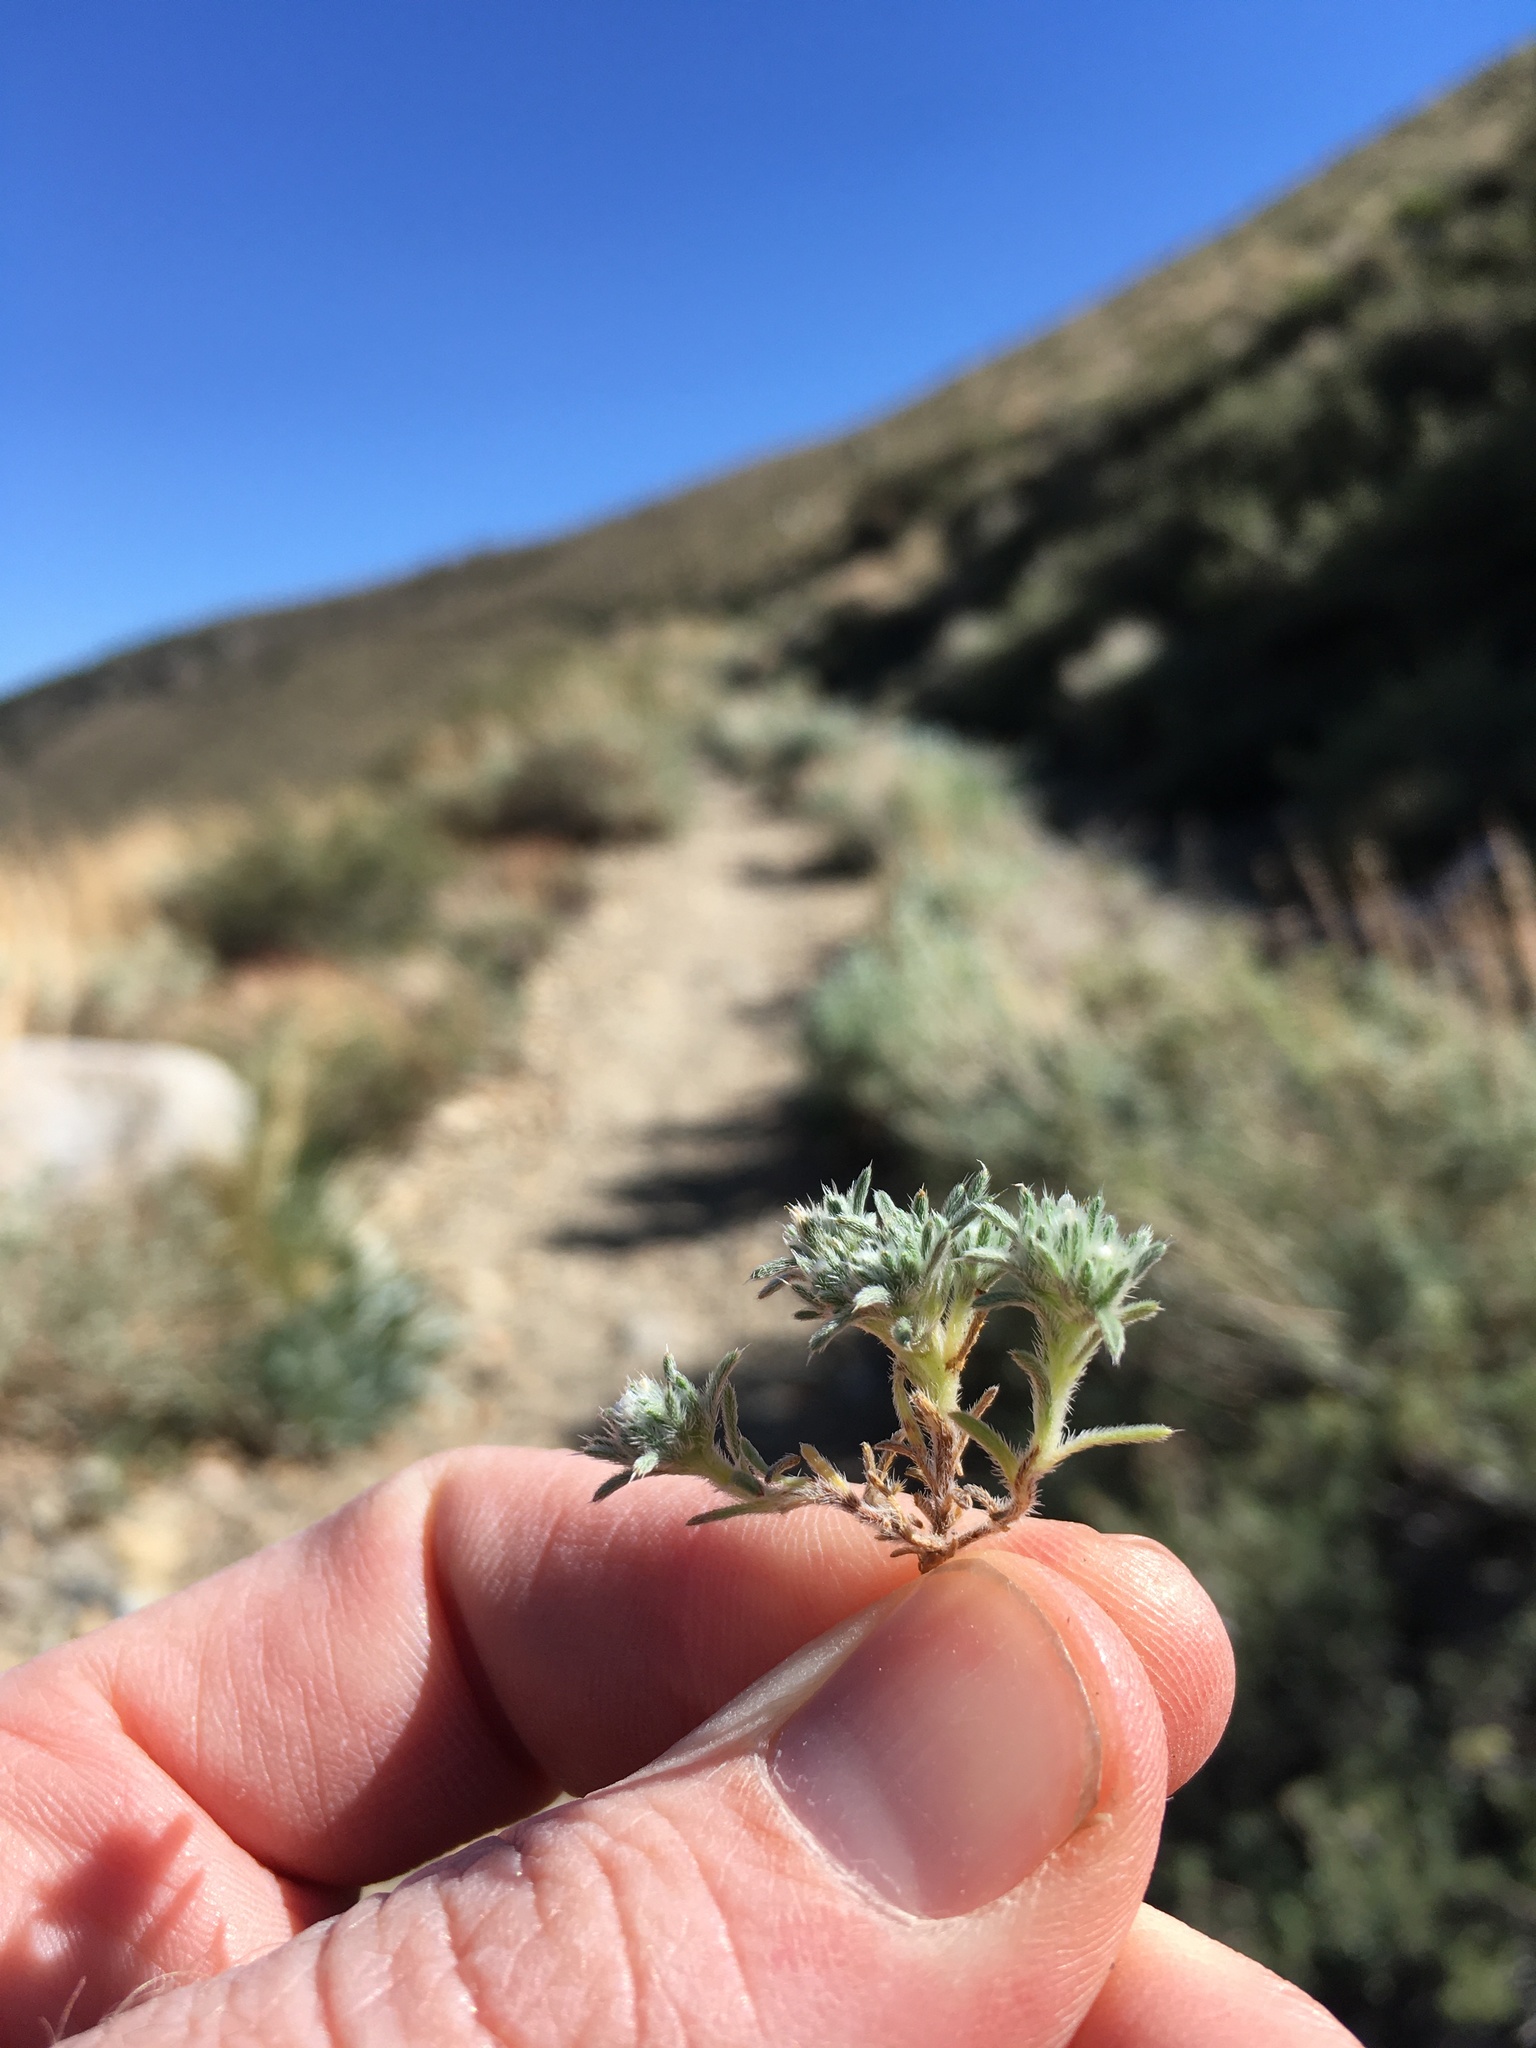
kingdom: Plantae
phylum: Tracheophyta
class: Magnoliopsida
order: Boraginales
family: Boraginaceae
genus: Greeneocharis
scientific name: Greeneocharis circumscissa
